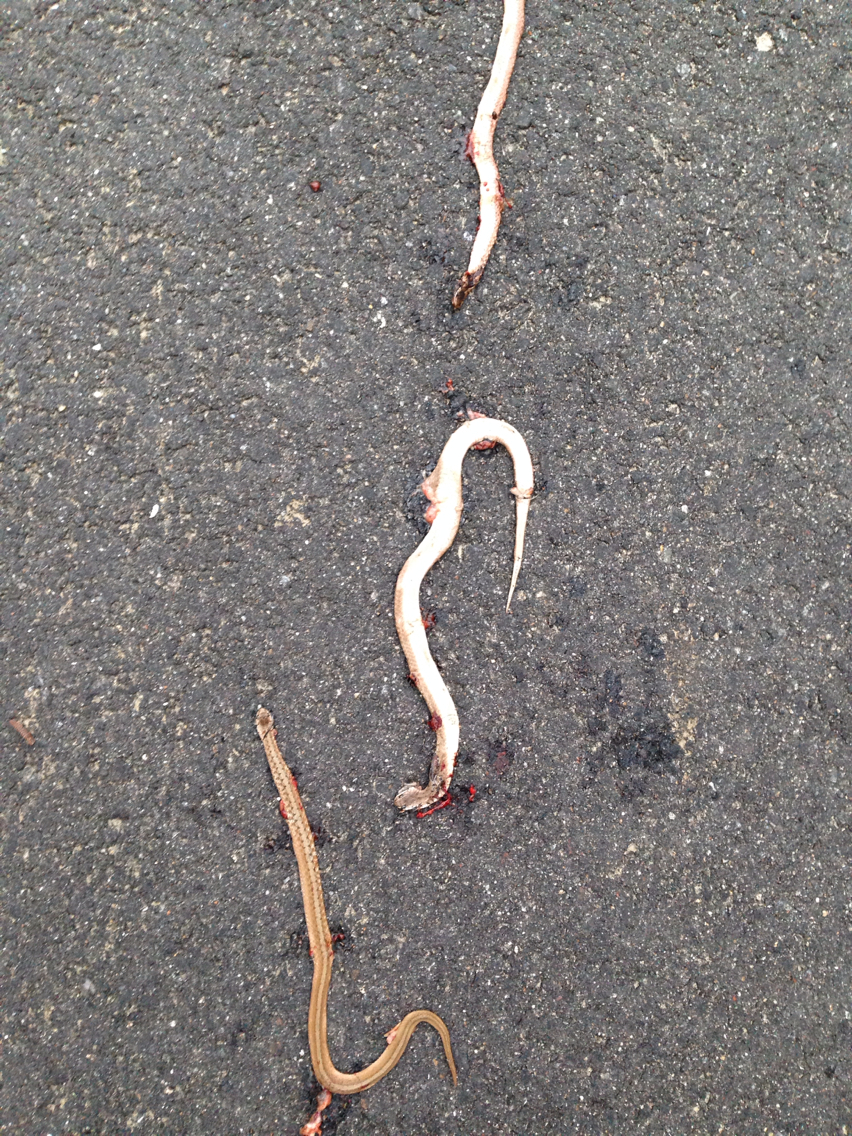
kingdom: Animalia
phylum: Chordata
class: Squamata
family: Colubridae
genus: Storeria
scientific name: Storeria dekayi
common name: (dekay’s) brown snake
